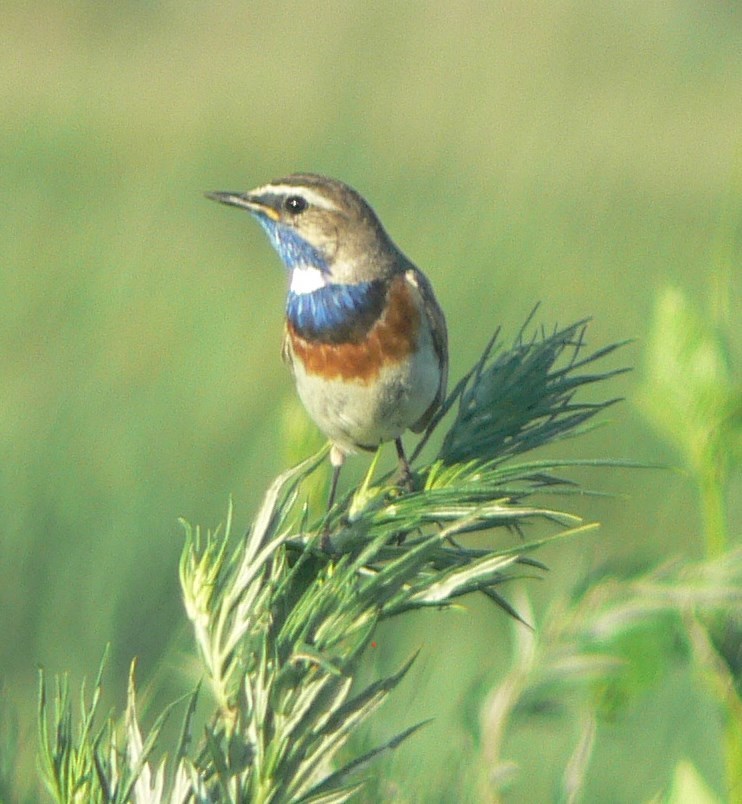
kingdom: Animalia
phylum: Chordata
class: Aves
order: Passeriformes
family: Muscicapidae
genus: Luscinia
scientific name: Luscinia svecica
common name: Bluethroat
